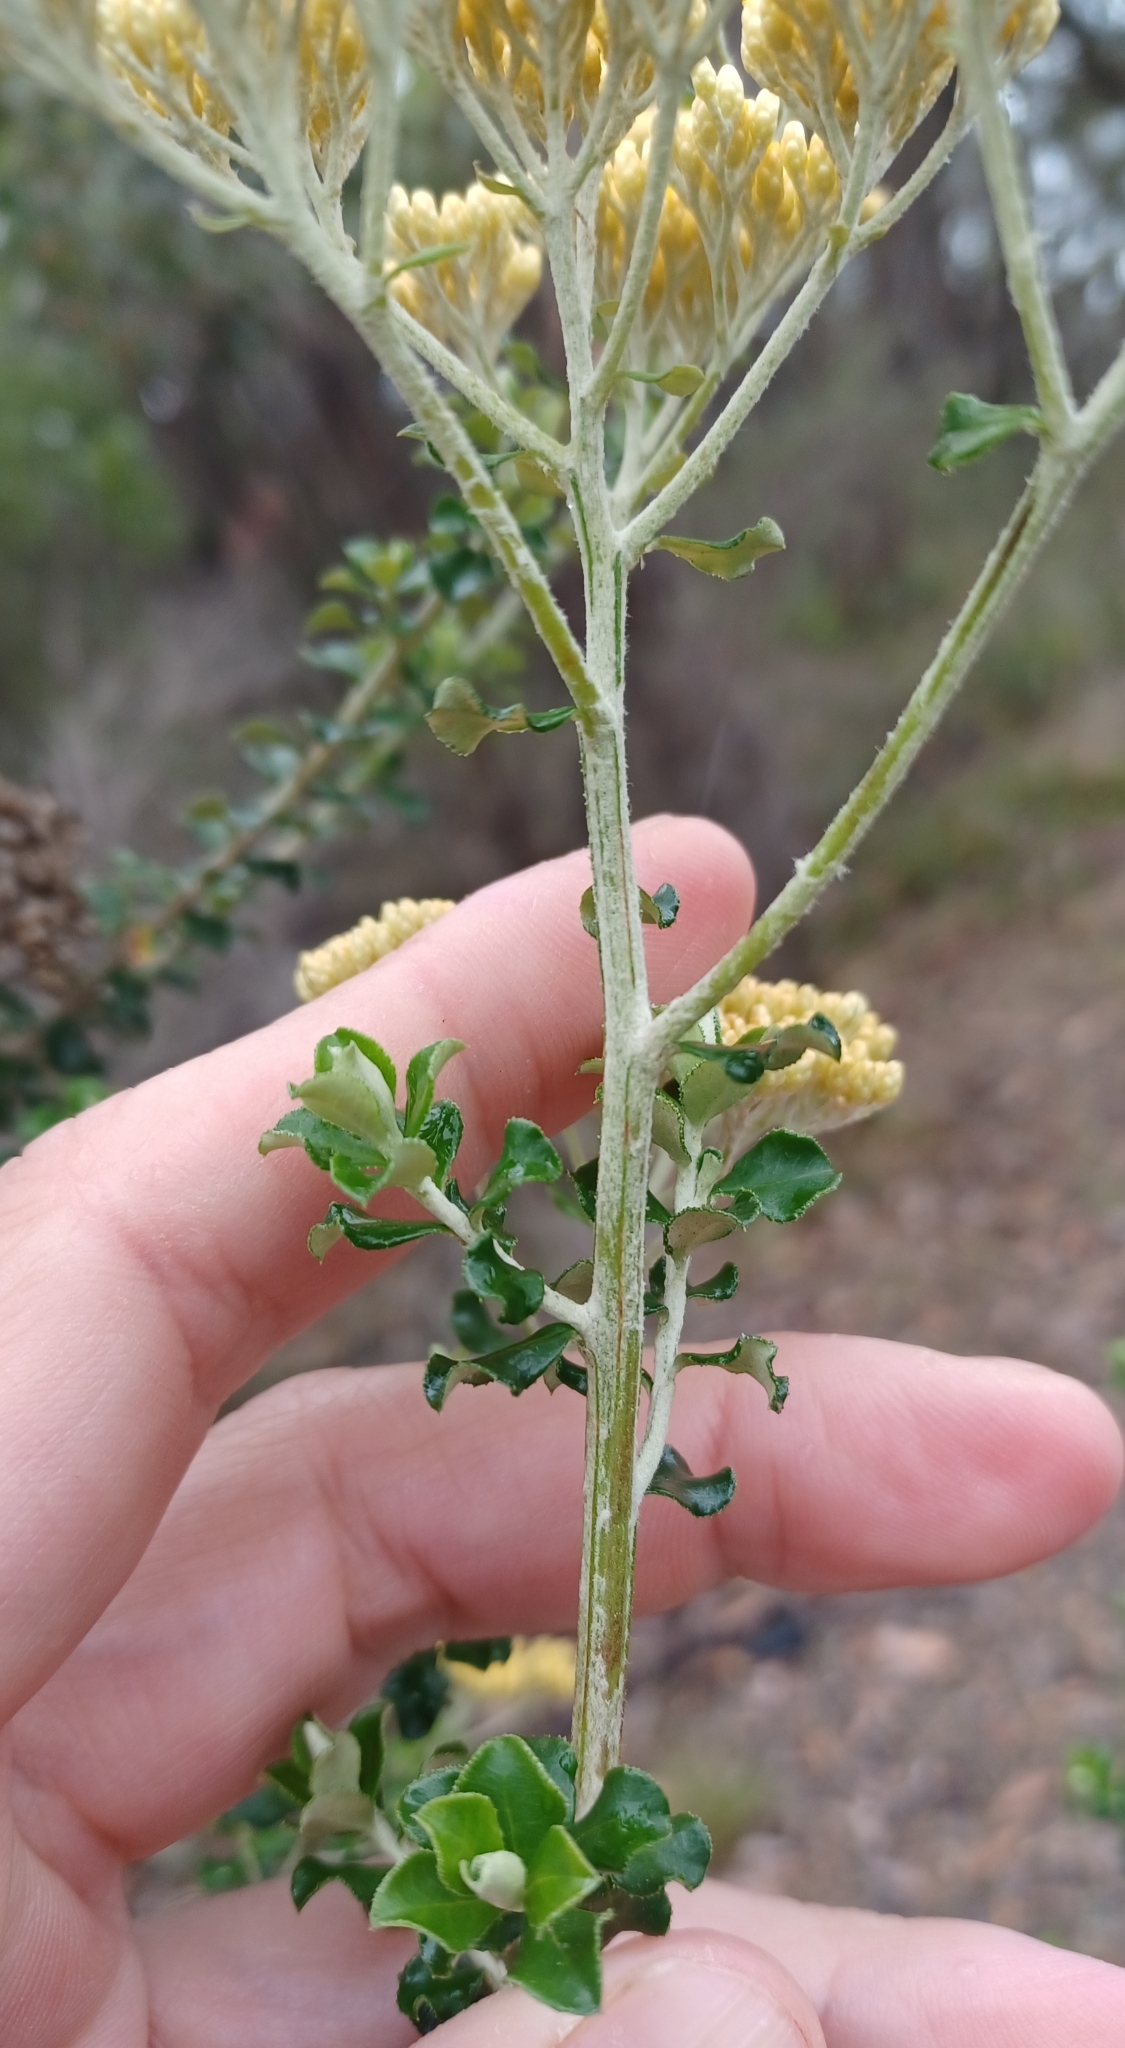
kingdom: Plantae
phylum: Tracheophyta
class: Magnoliopsida
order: Asterales
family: Asteraceae
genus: Ozothamnus
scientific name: Ozothamnus obcordatus
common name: Grey everlasting
